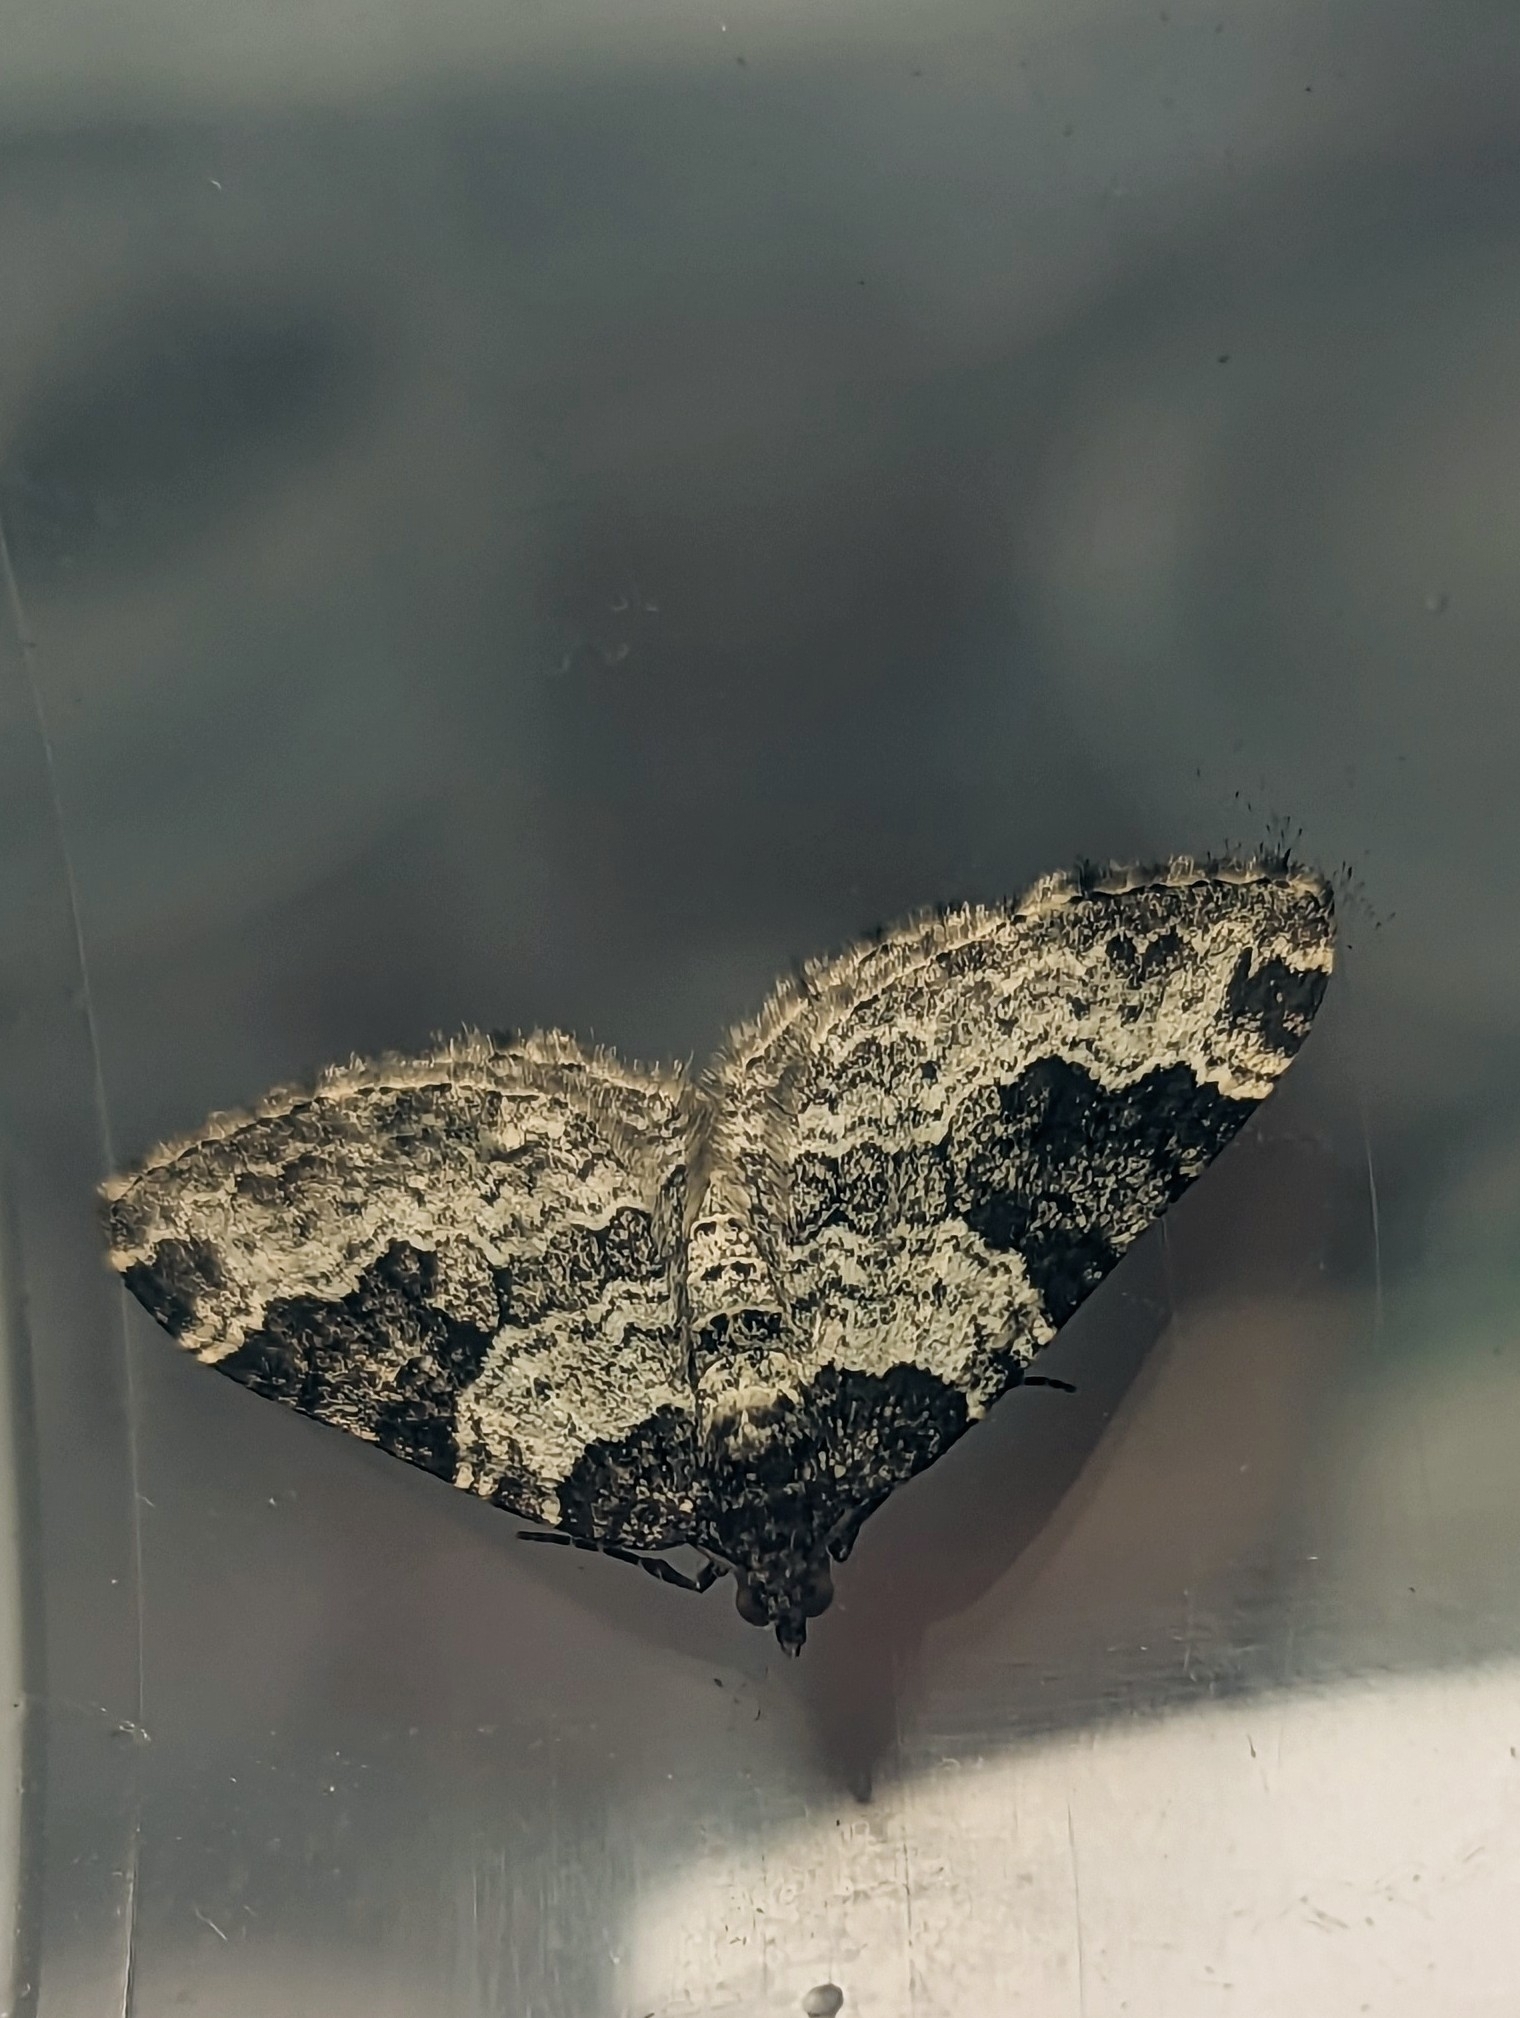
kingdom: Animalia
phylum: Arthropoda
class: Insecta
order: Lepidoptera
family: Geometridae
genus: Xanthorhoe
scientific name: Xanthorhoe fluctuata
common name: Garden carpet
